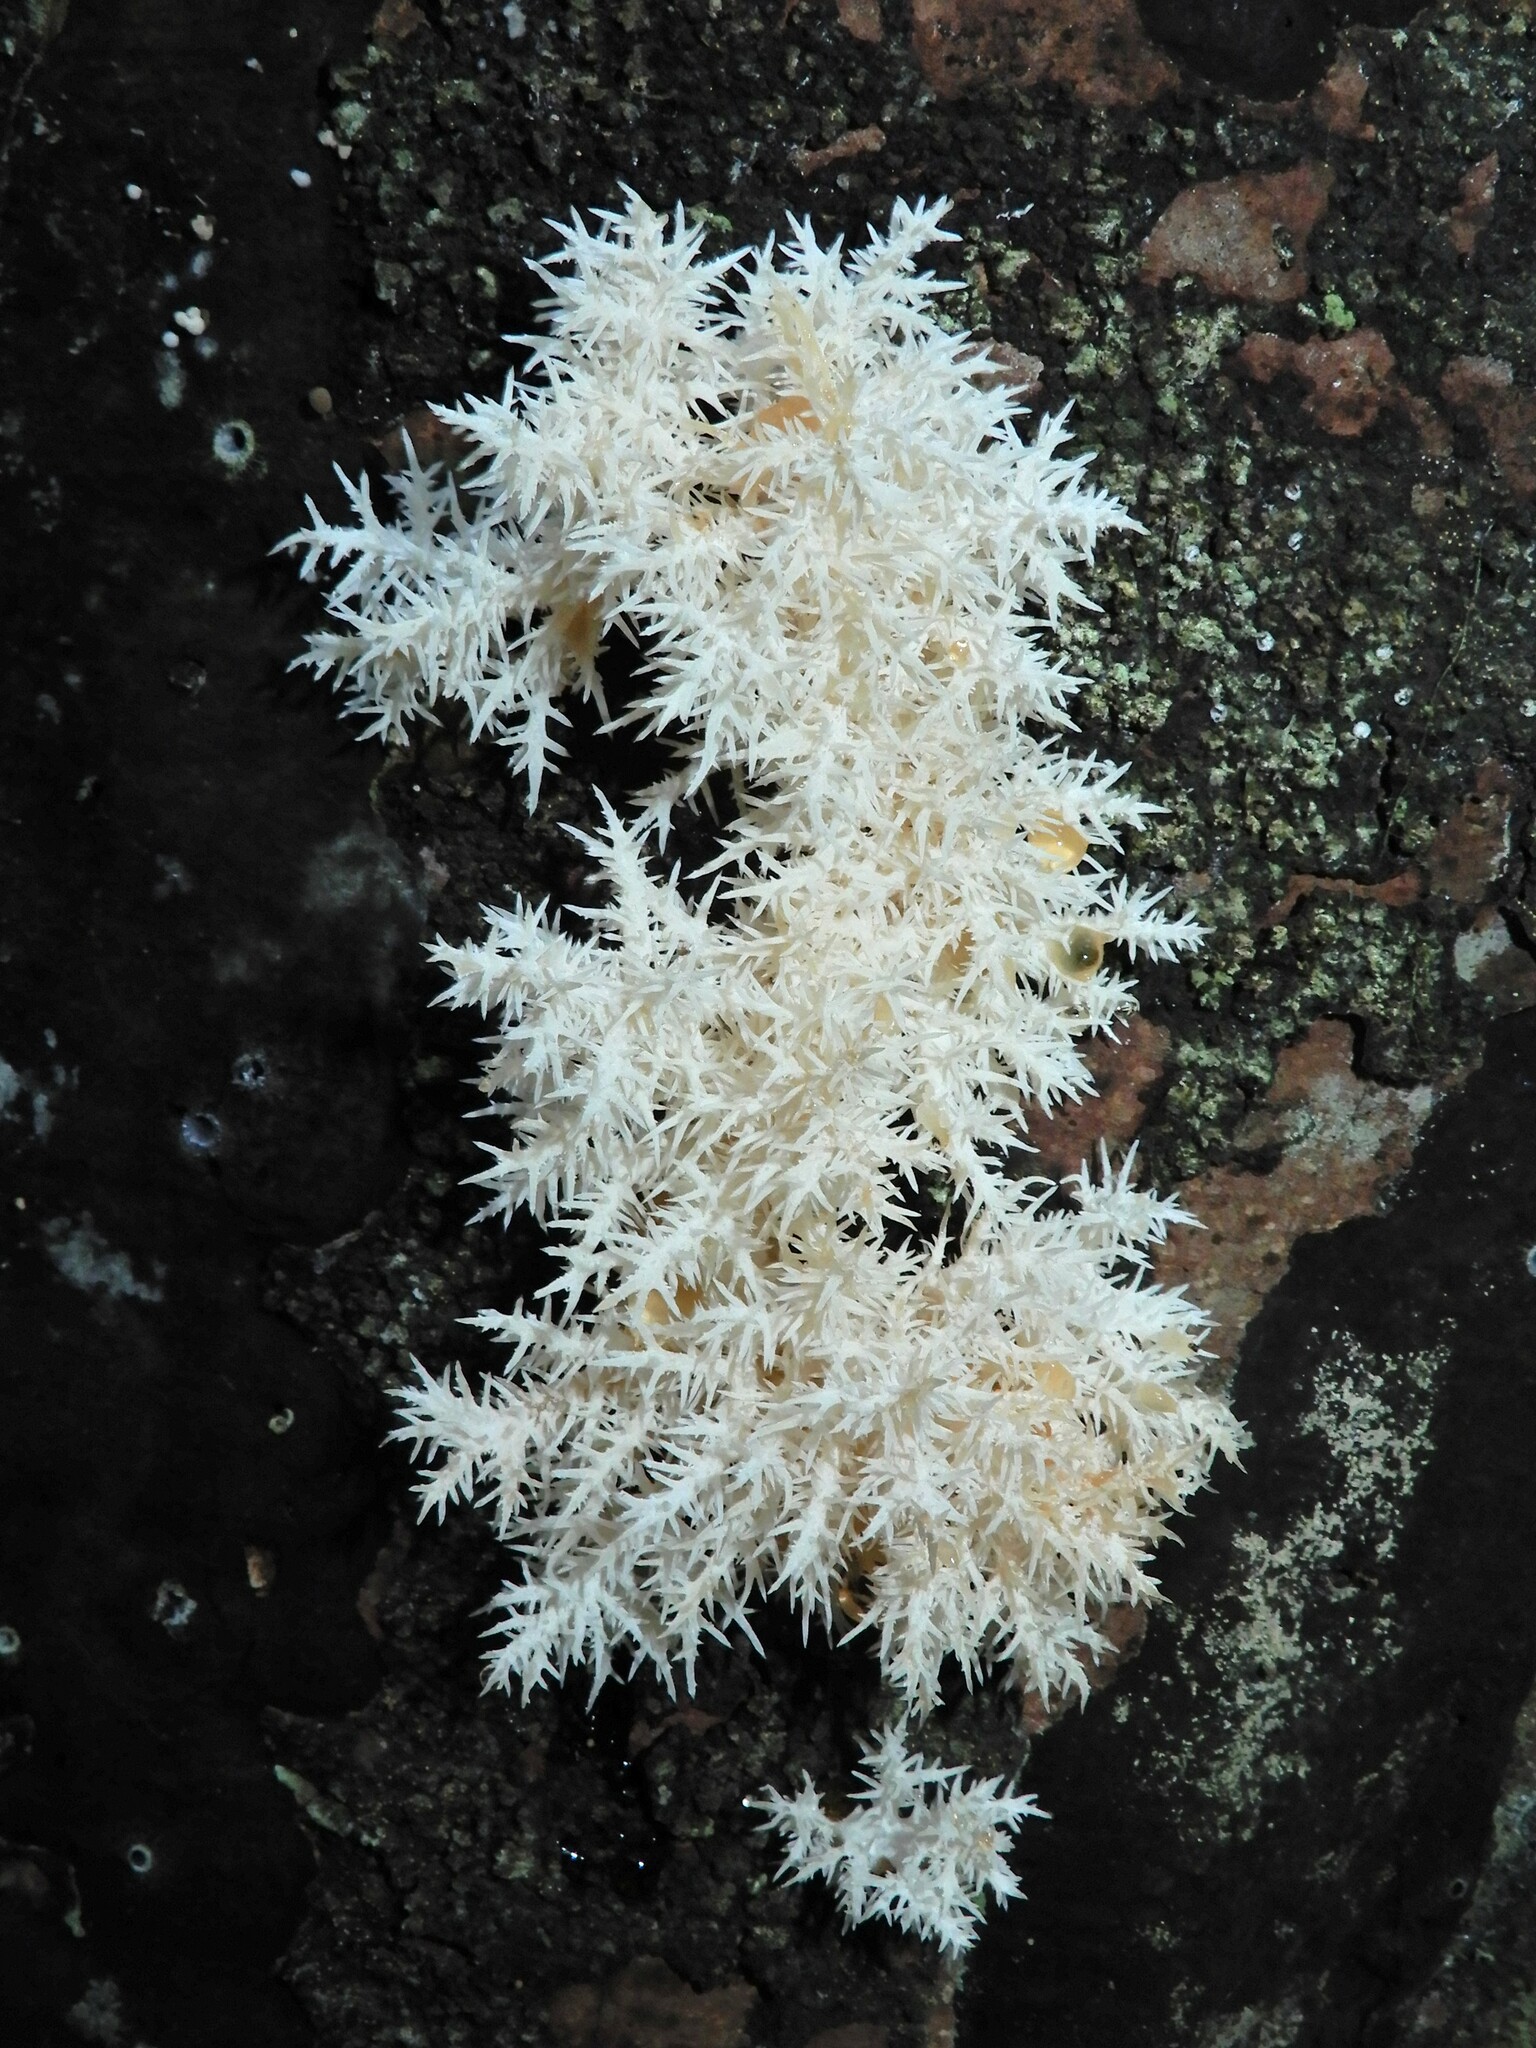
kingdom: Fungi
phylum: Basidiomycota
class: Agaricomycetes
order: Russulales
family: Hericiaceae
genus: Hericium
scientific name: Hericium novae-zealandiae
